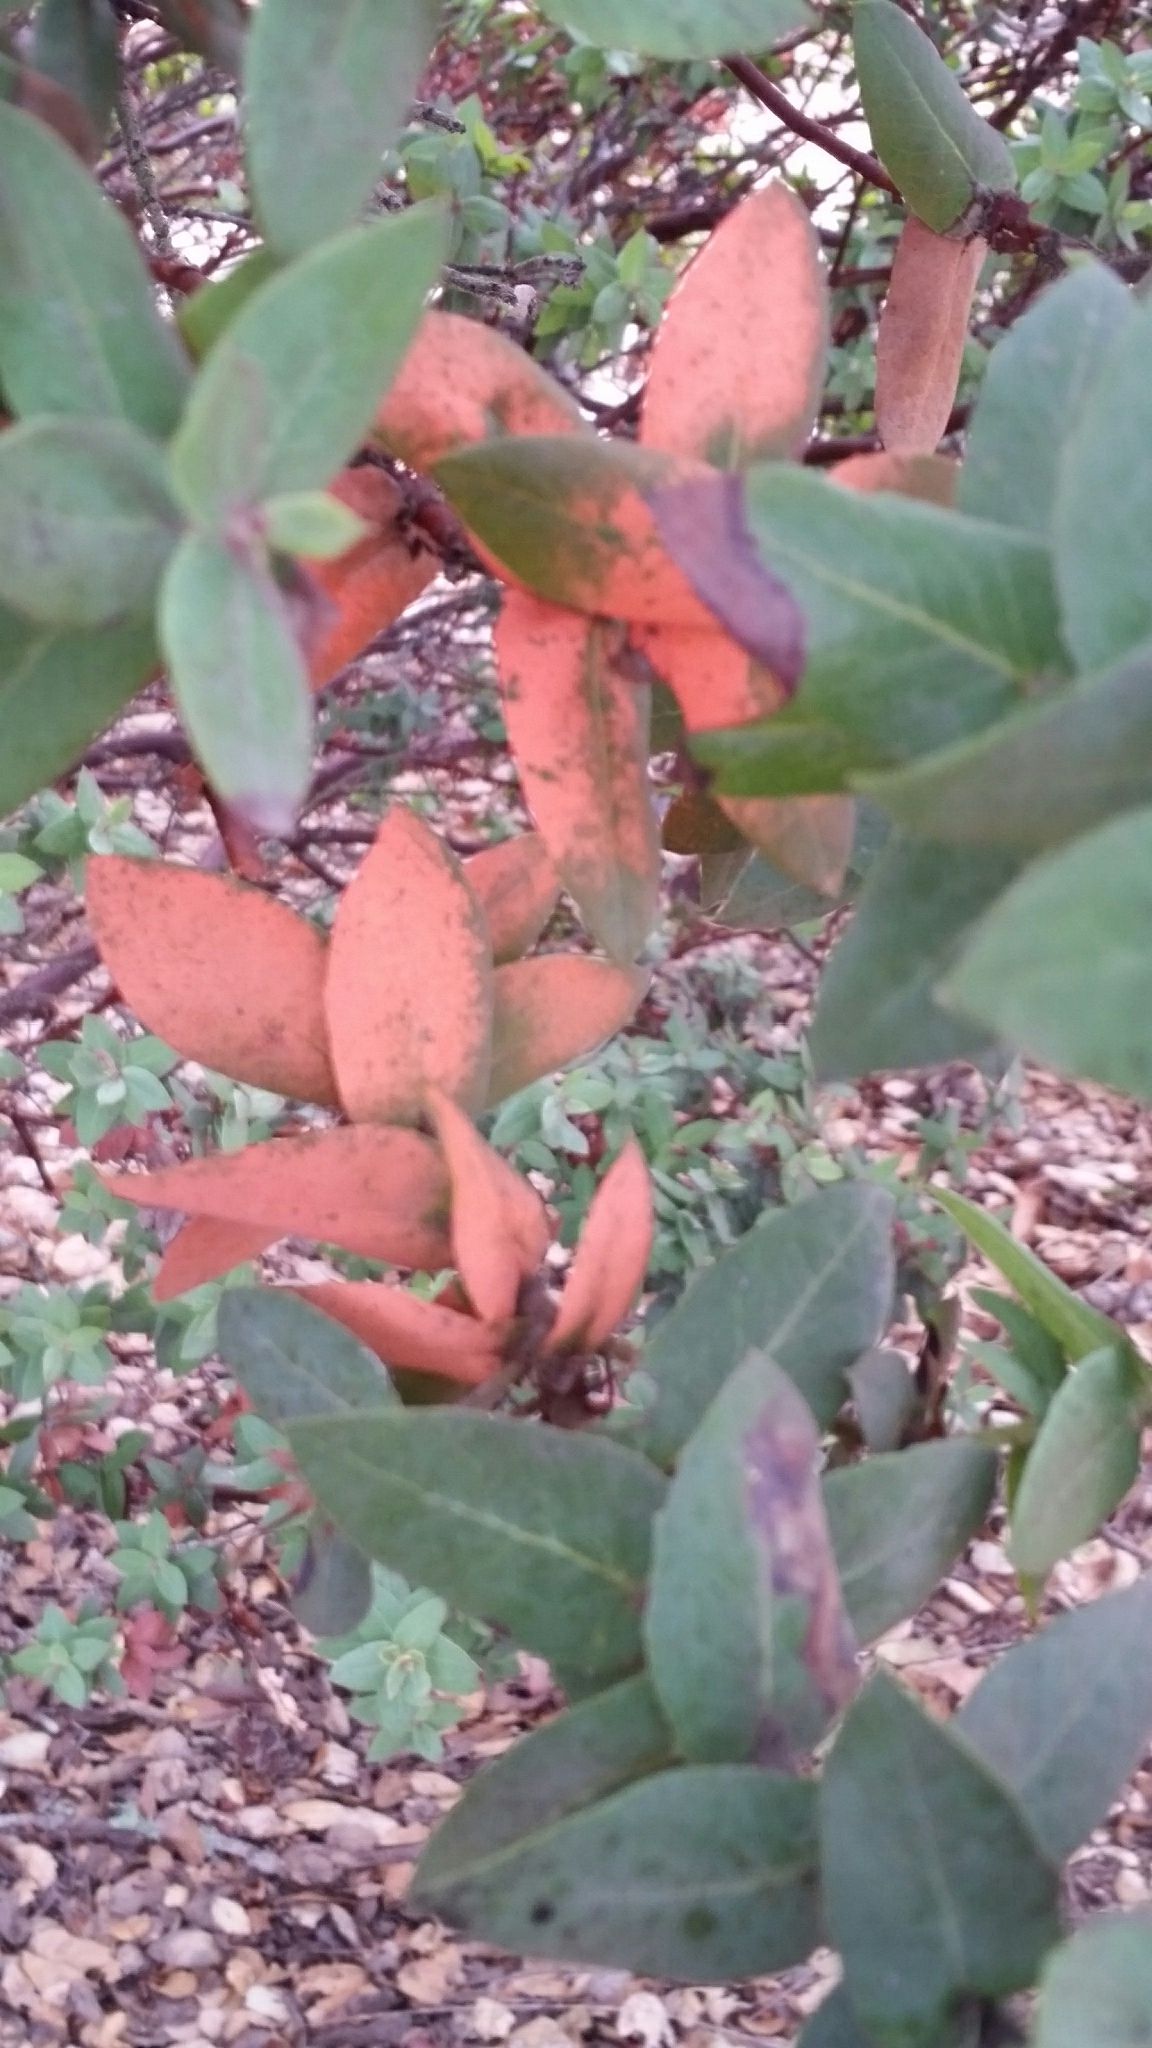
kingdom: Plantae
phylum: Tracheophyta
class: Magnoliopsida
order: Ericales
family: Ericaceae
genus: Arctostaphylos
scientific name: Arctostaphylos pallida
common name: Pallid manzanita
